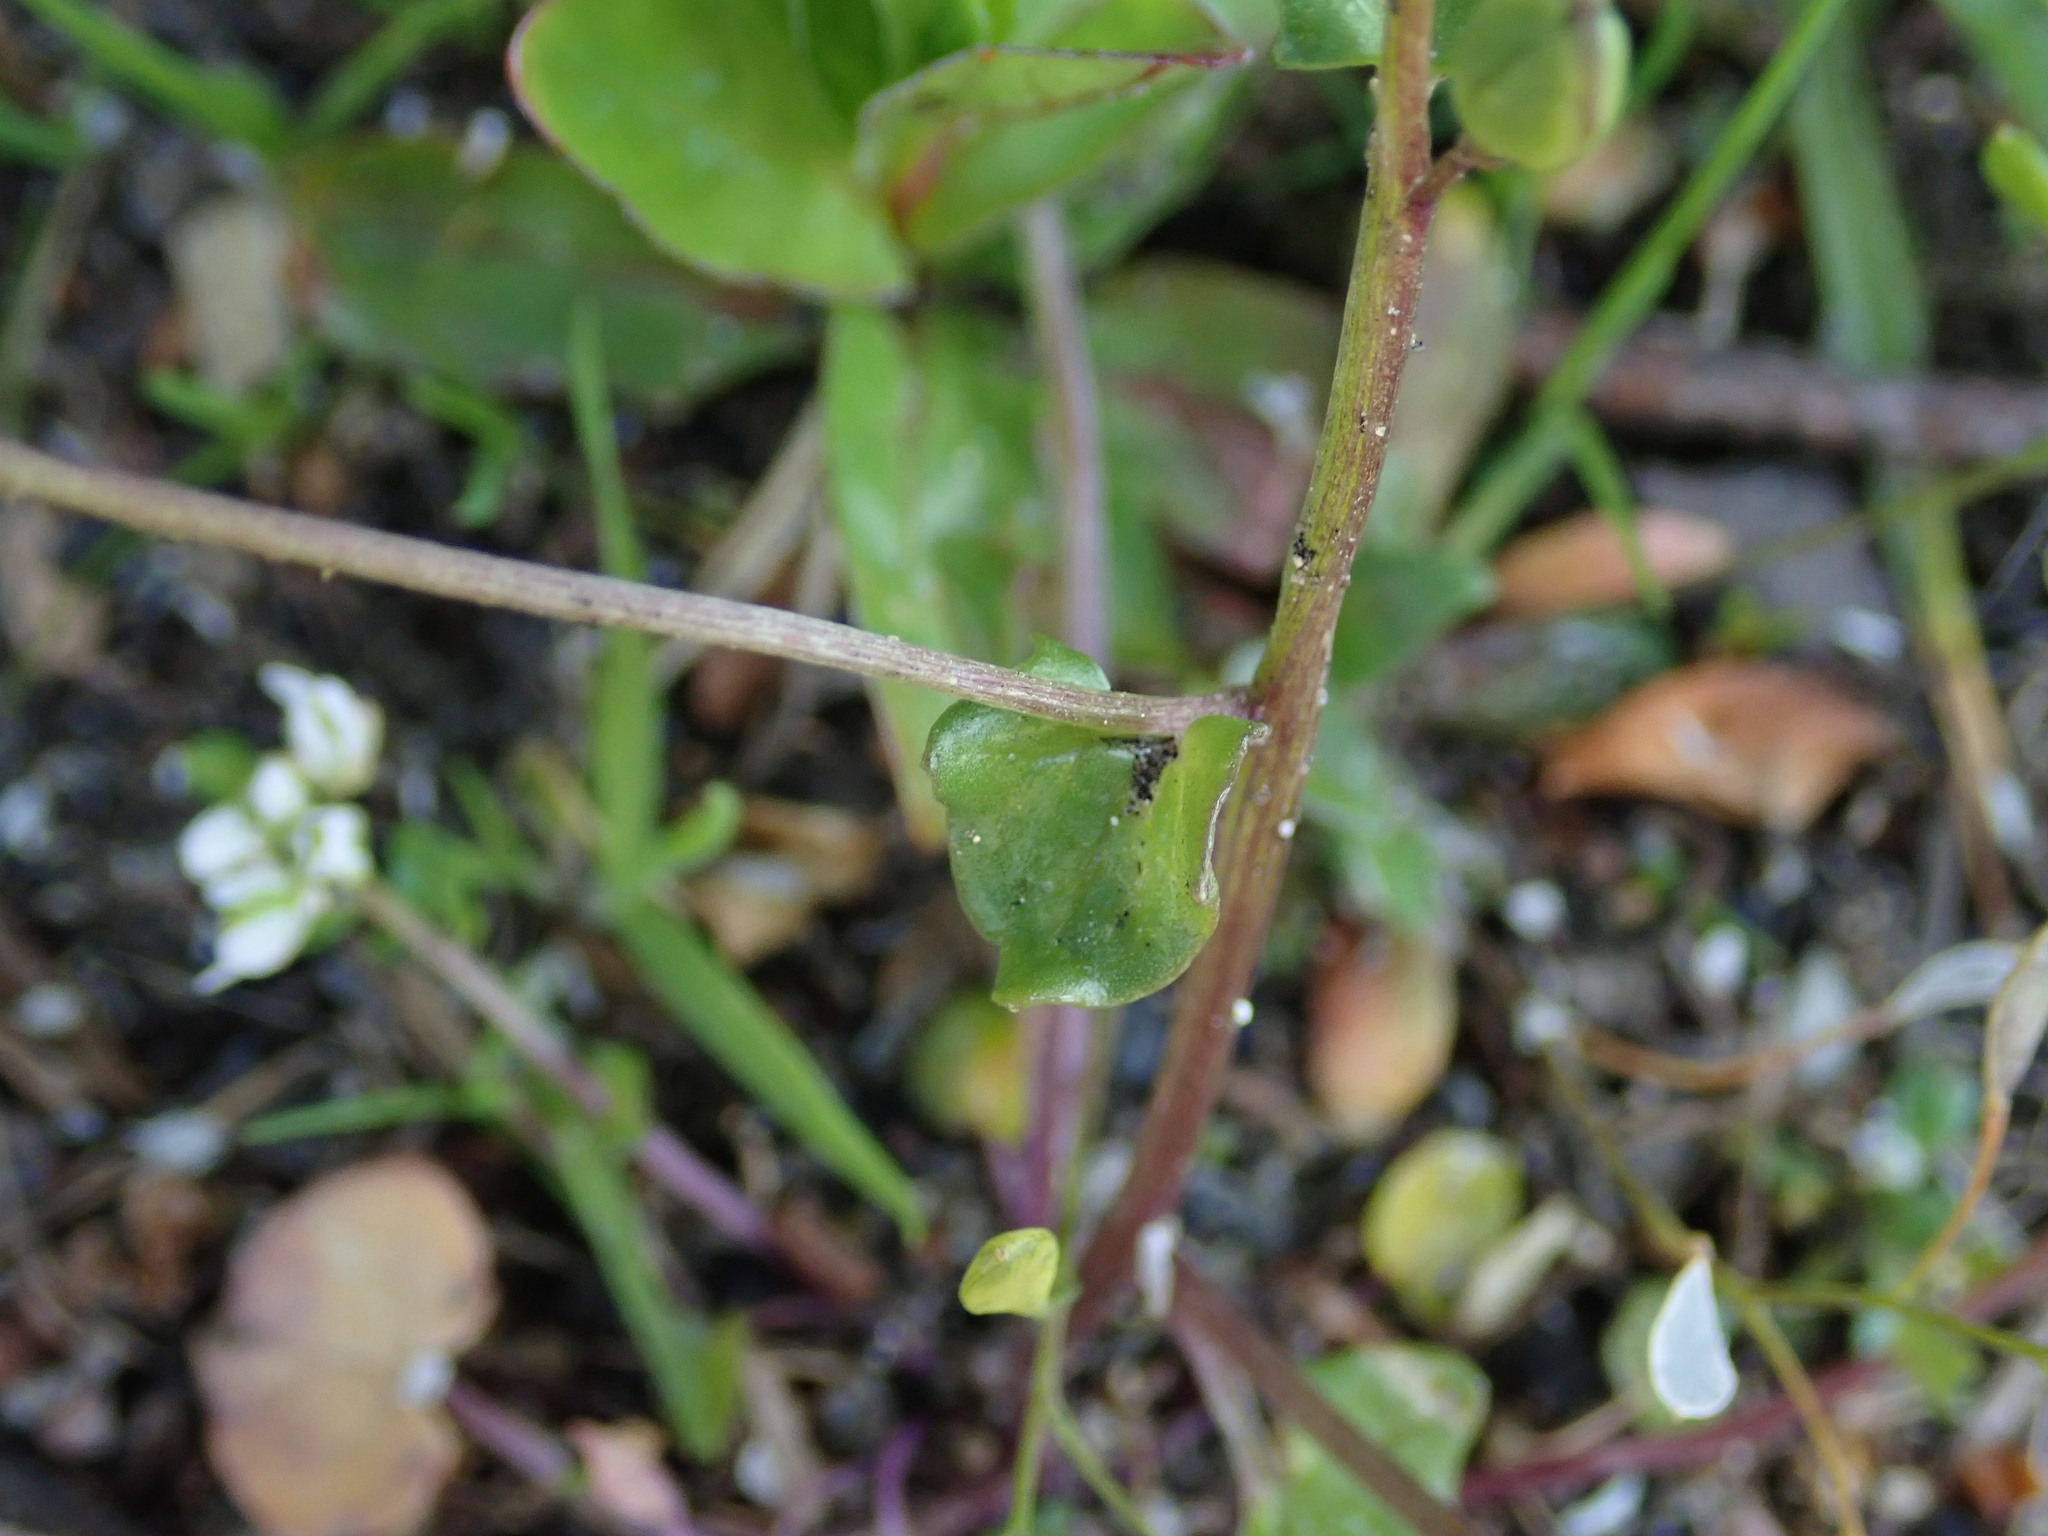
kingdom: Plantae
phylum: Tracheophyta
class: Magnoliopsida
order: Brassicales
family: Brassicaceae
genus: Cochlearia
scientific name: Cochlearia danica
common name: Early scurvygrass
